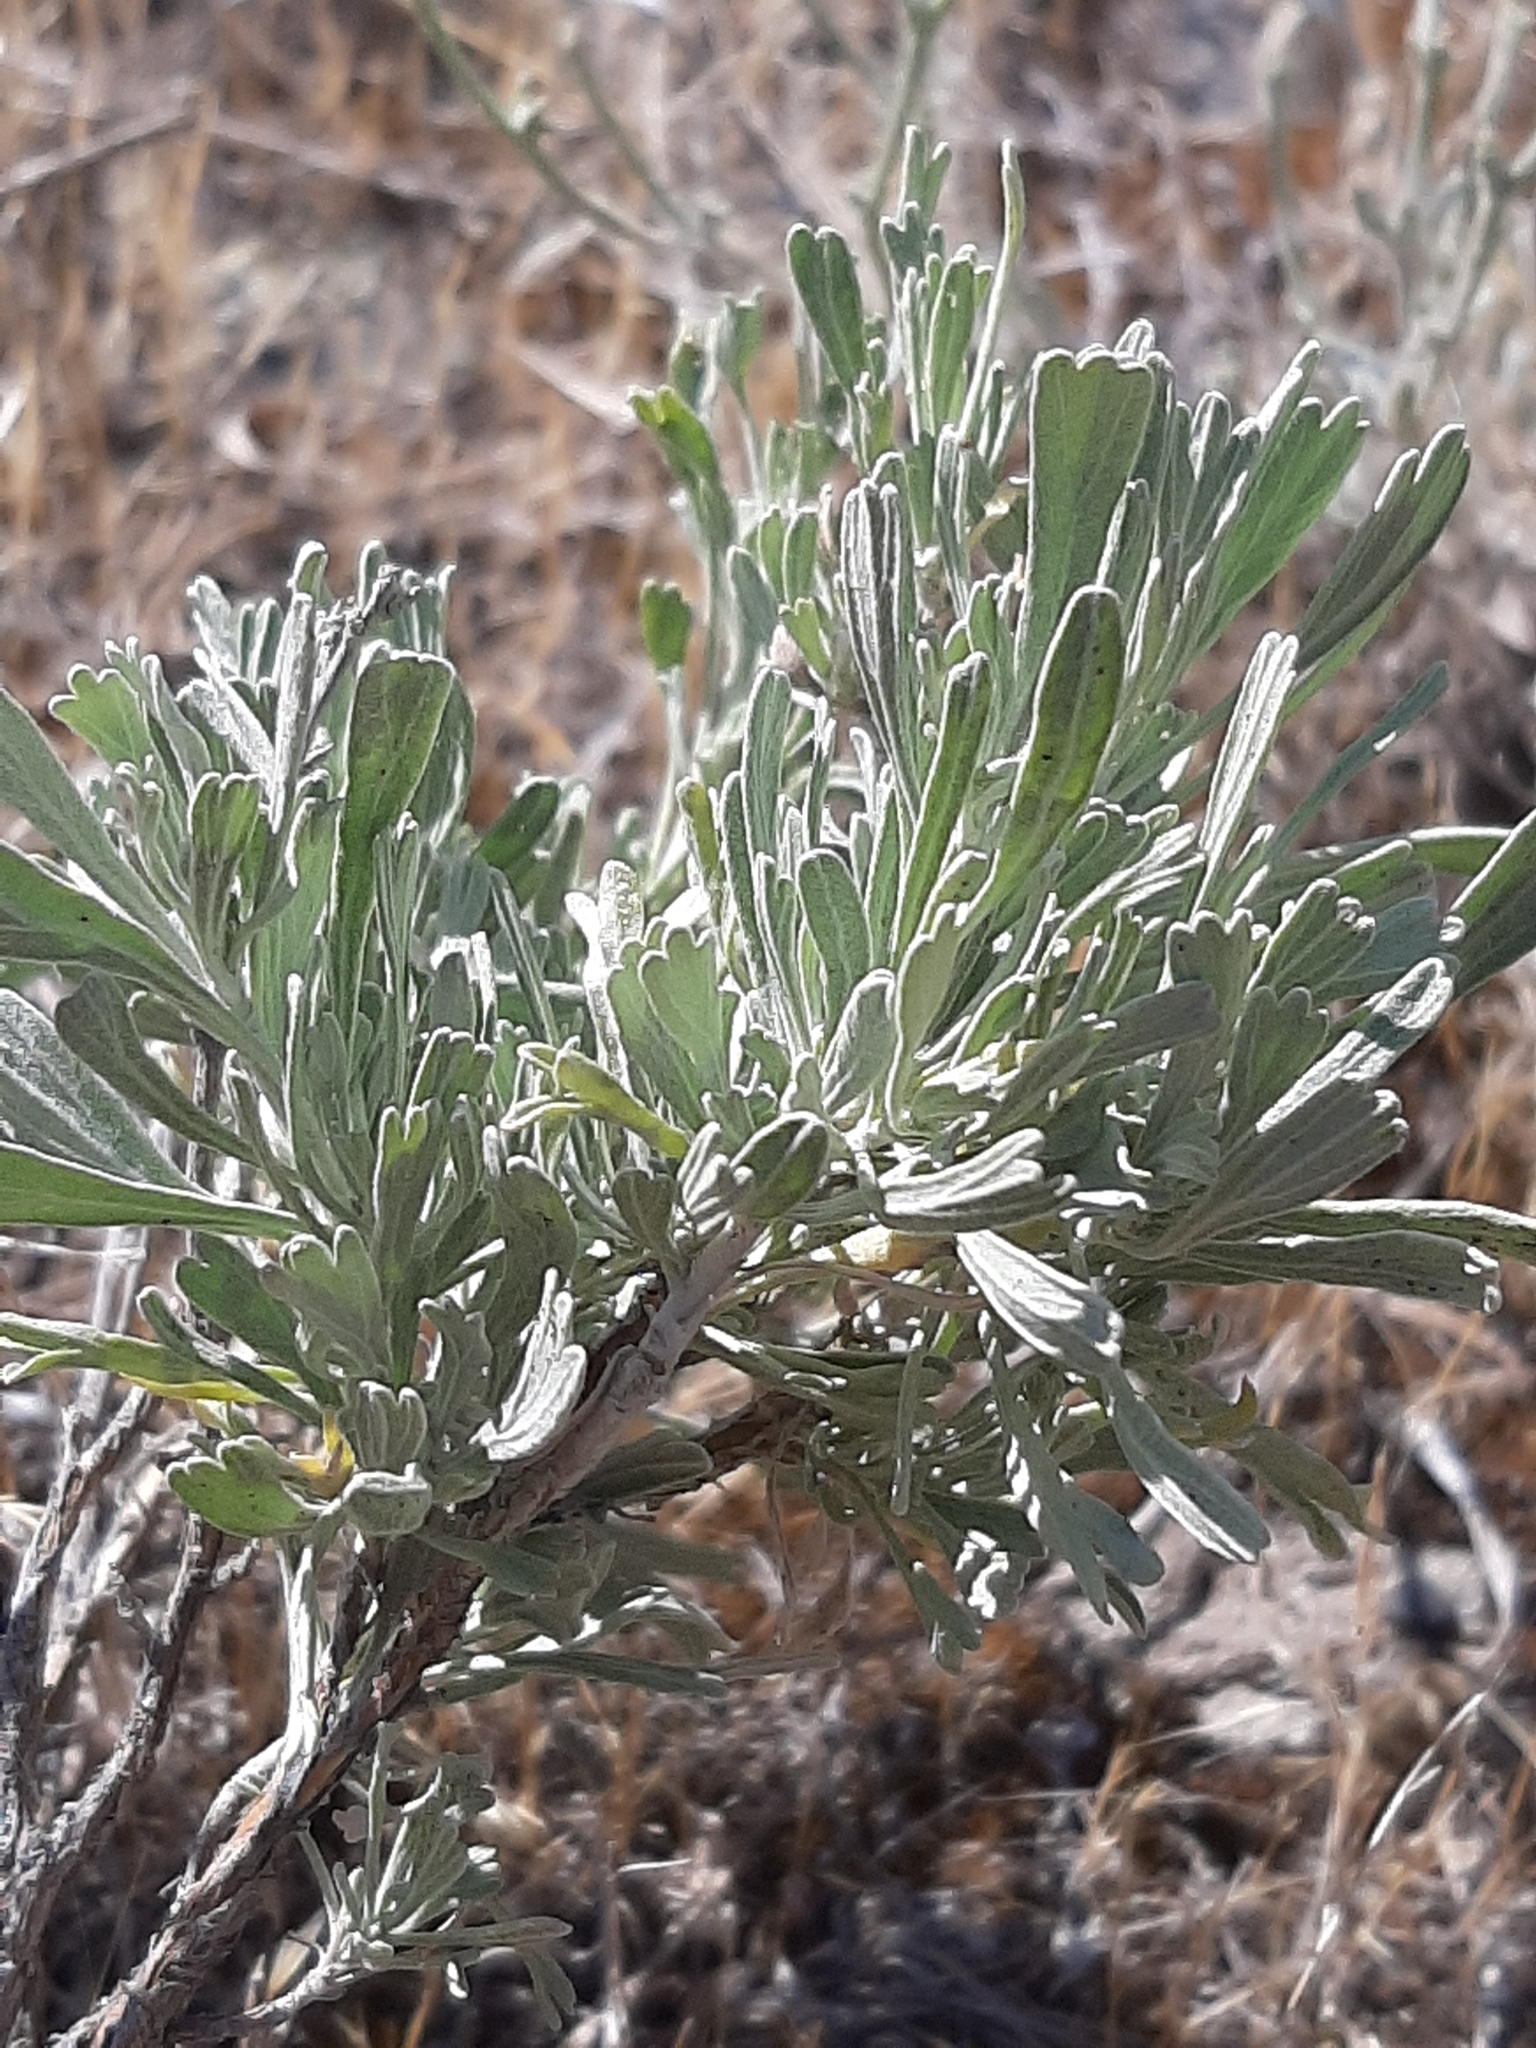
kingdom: Plantae
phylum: Tracheophyta
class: Magnoliopsida
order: Asterales
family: Asteraceae
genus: Artemisia
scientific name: Artemisia tridentata
